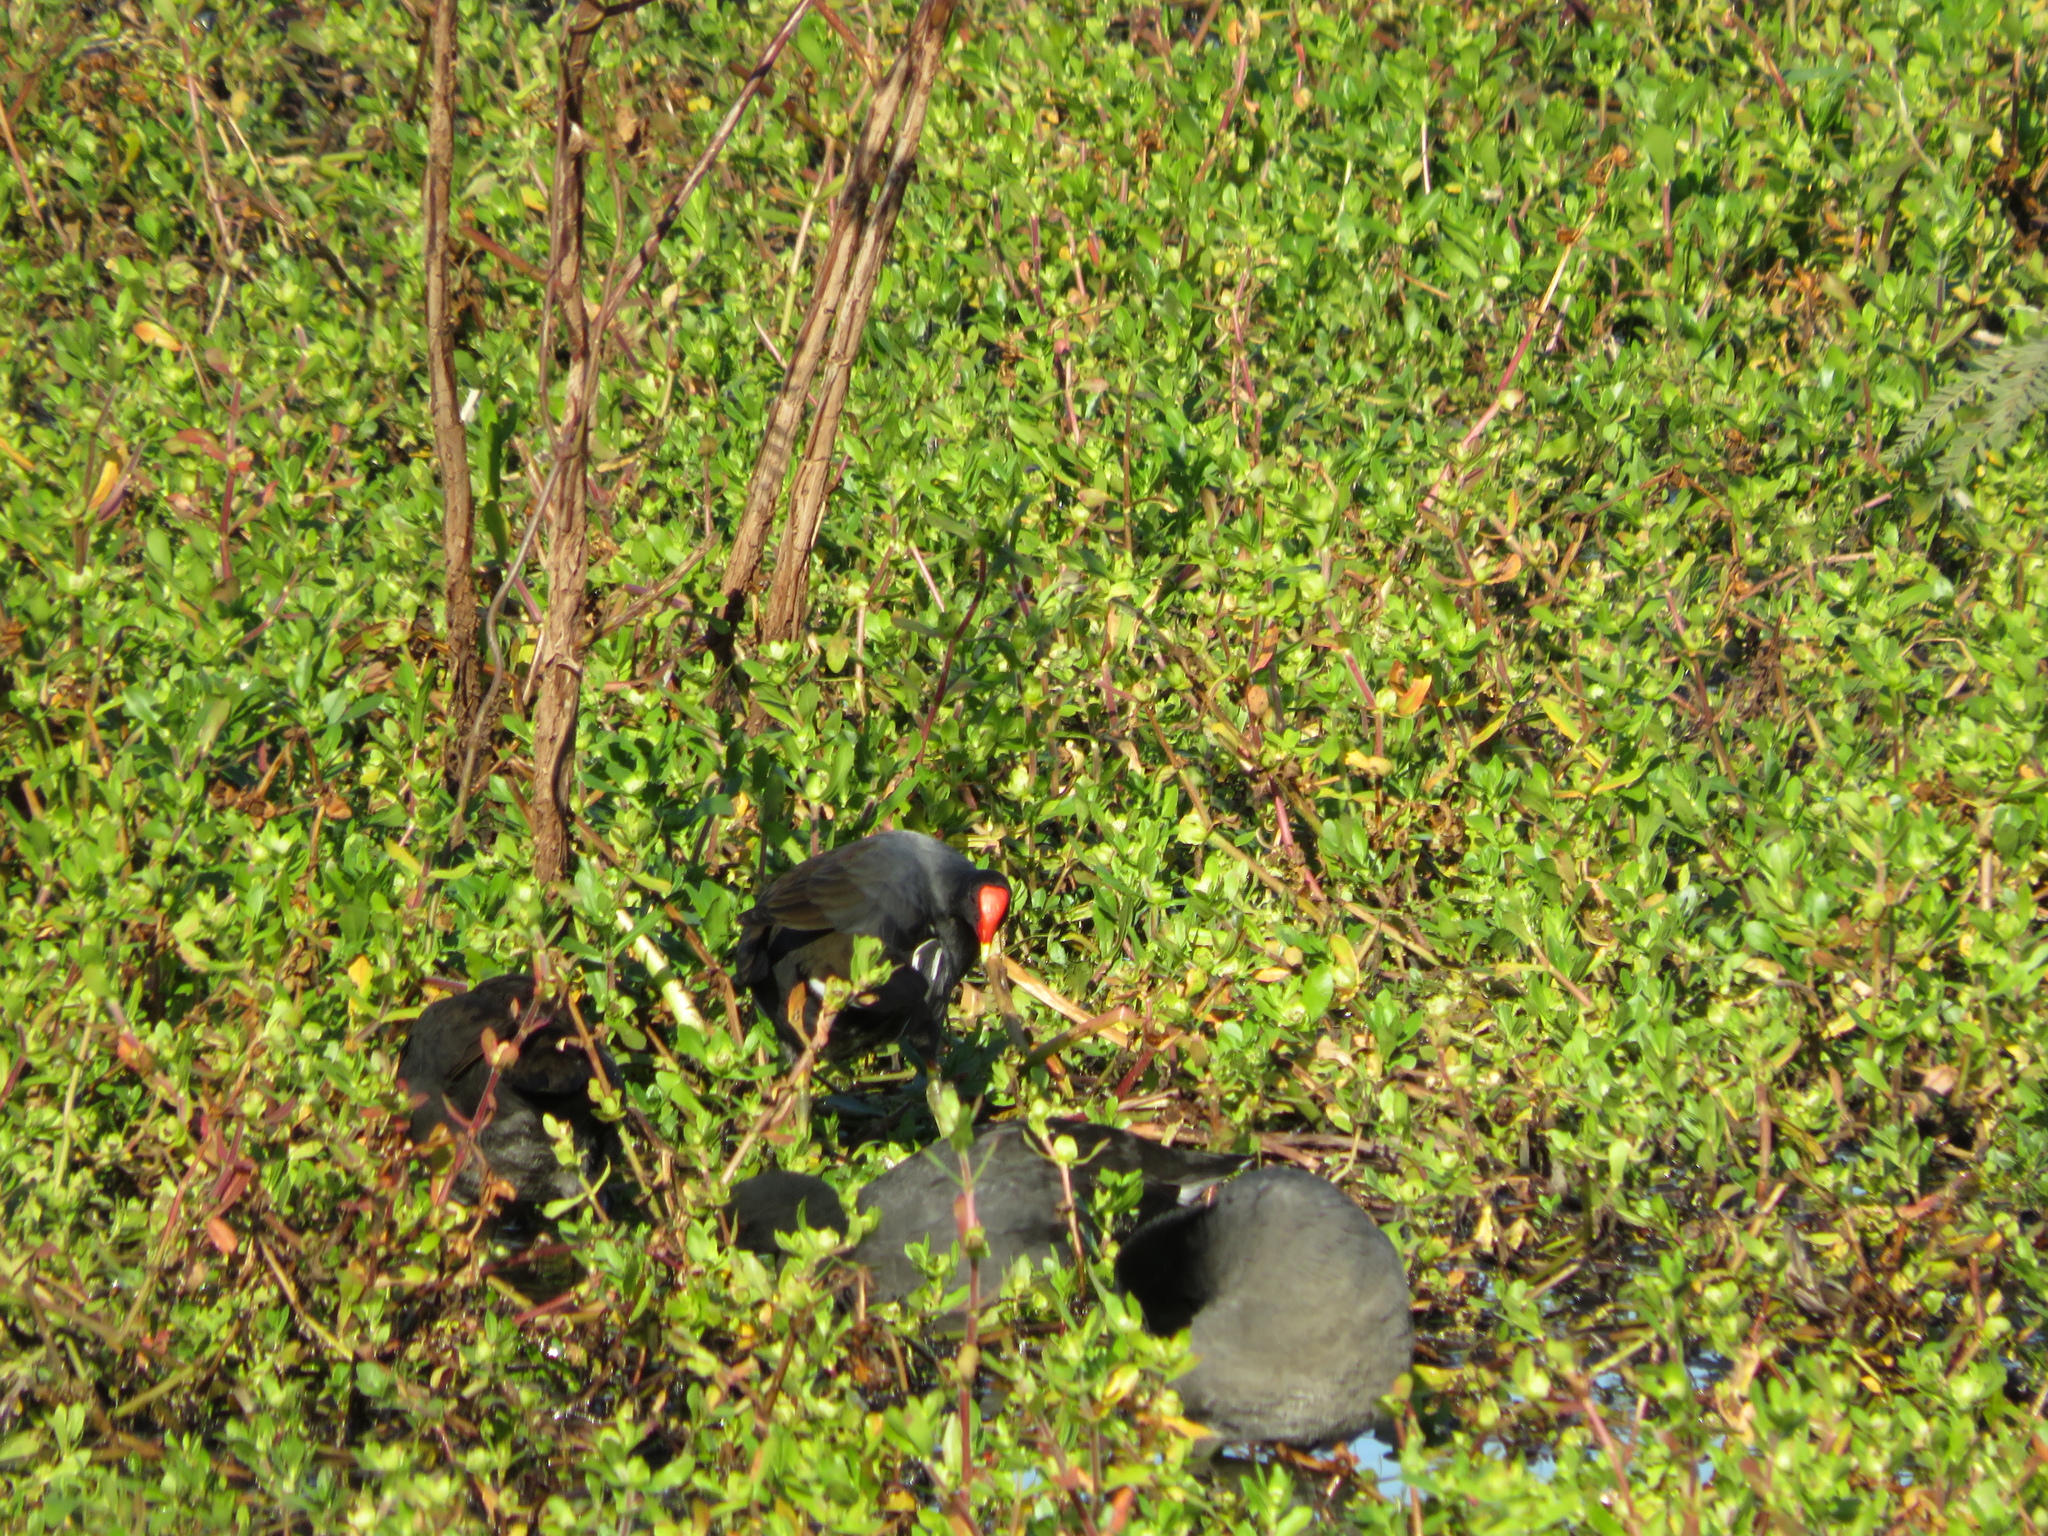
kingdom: Animalia
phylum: Chordata
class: Aves
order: Gruiformes
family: Rallidae
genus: Gallinula
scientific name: Gallinula chloropus
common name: Common moorhen
